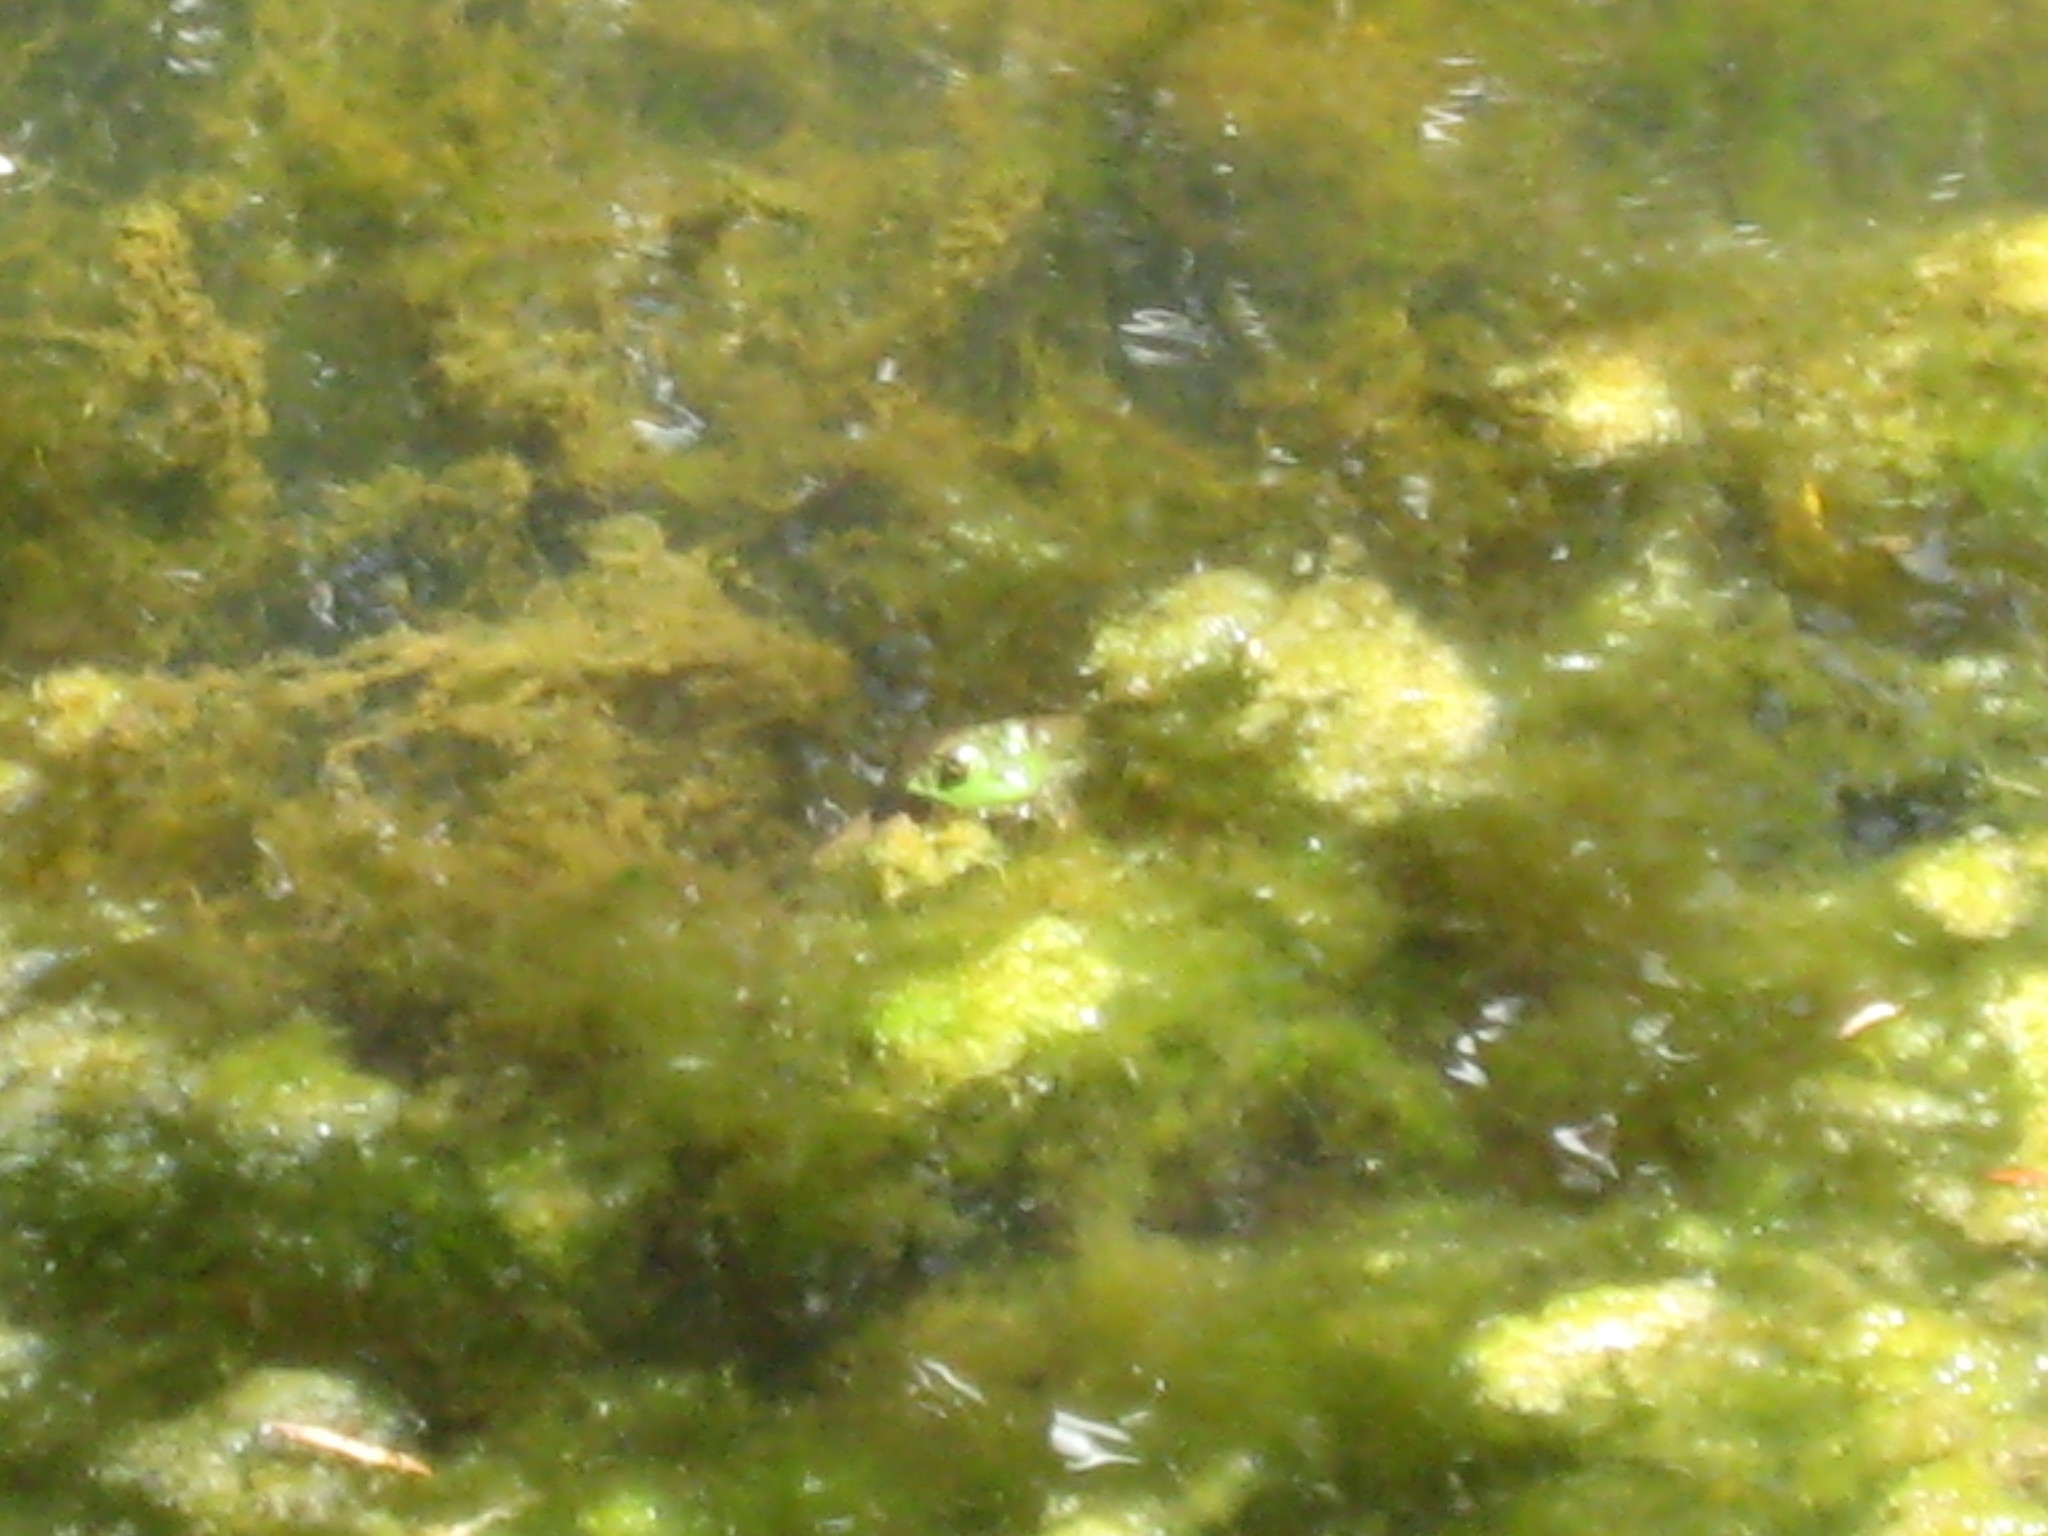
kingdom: Animalia
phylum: Chordata
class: Amphibia
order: Anura
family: Ranidae
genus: Lithobates
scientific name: Lithobates catesbeianus
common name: American bullfrog
